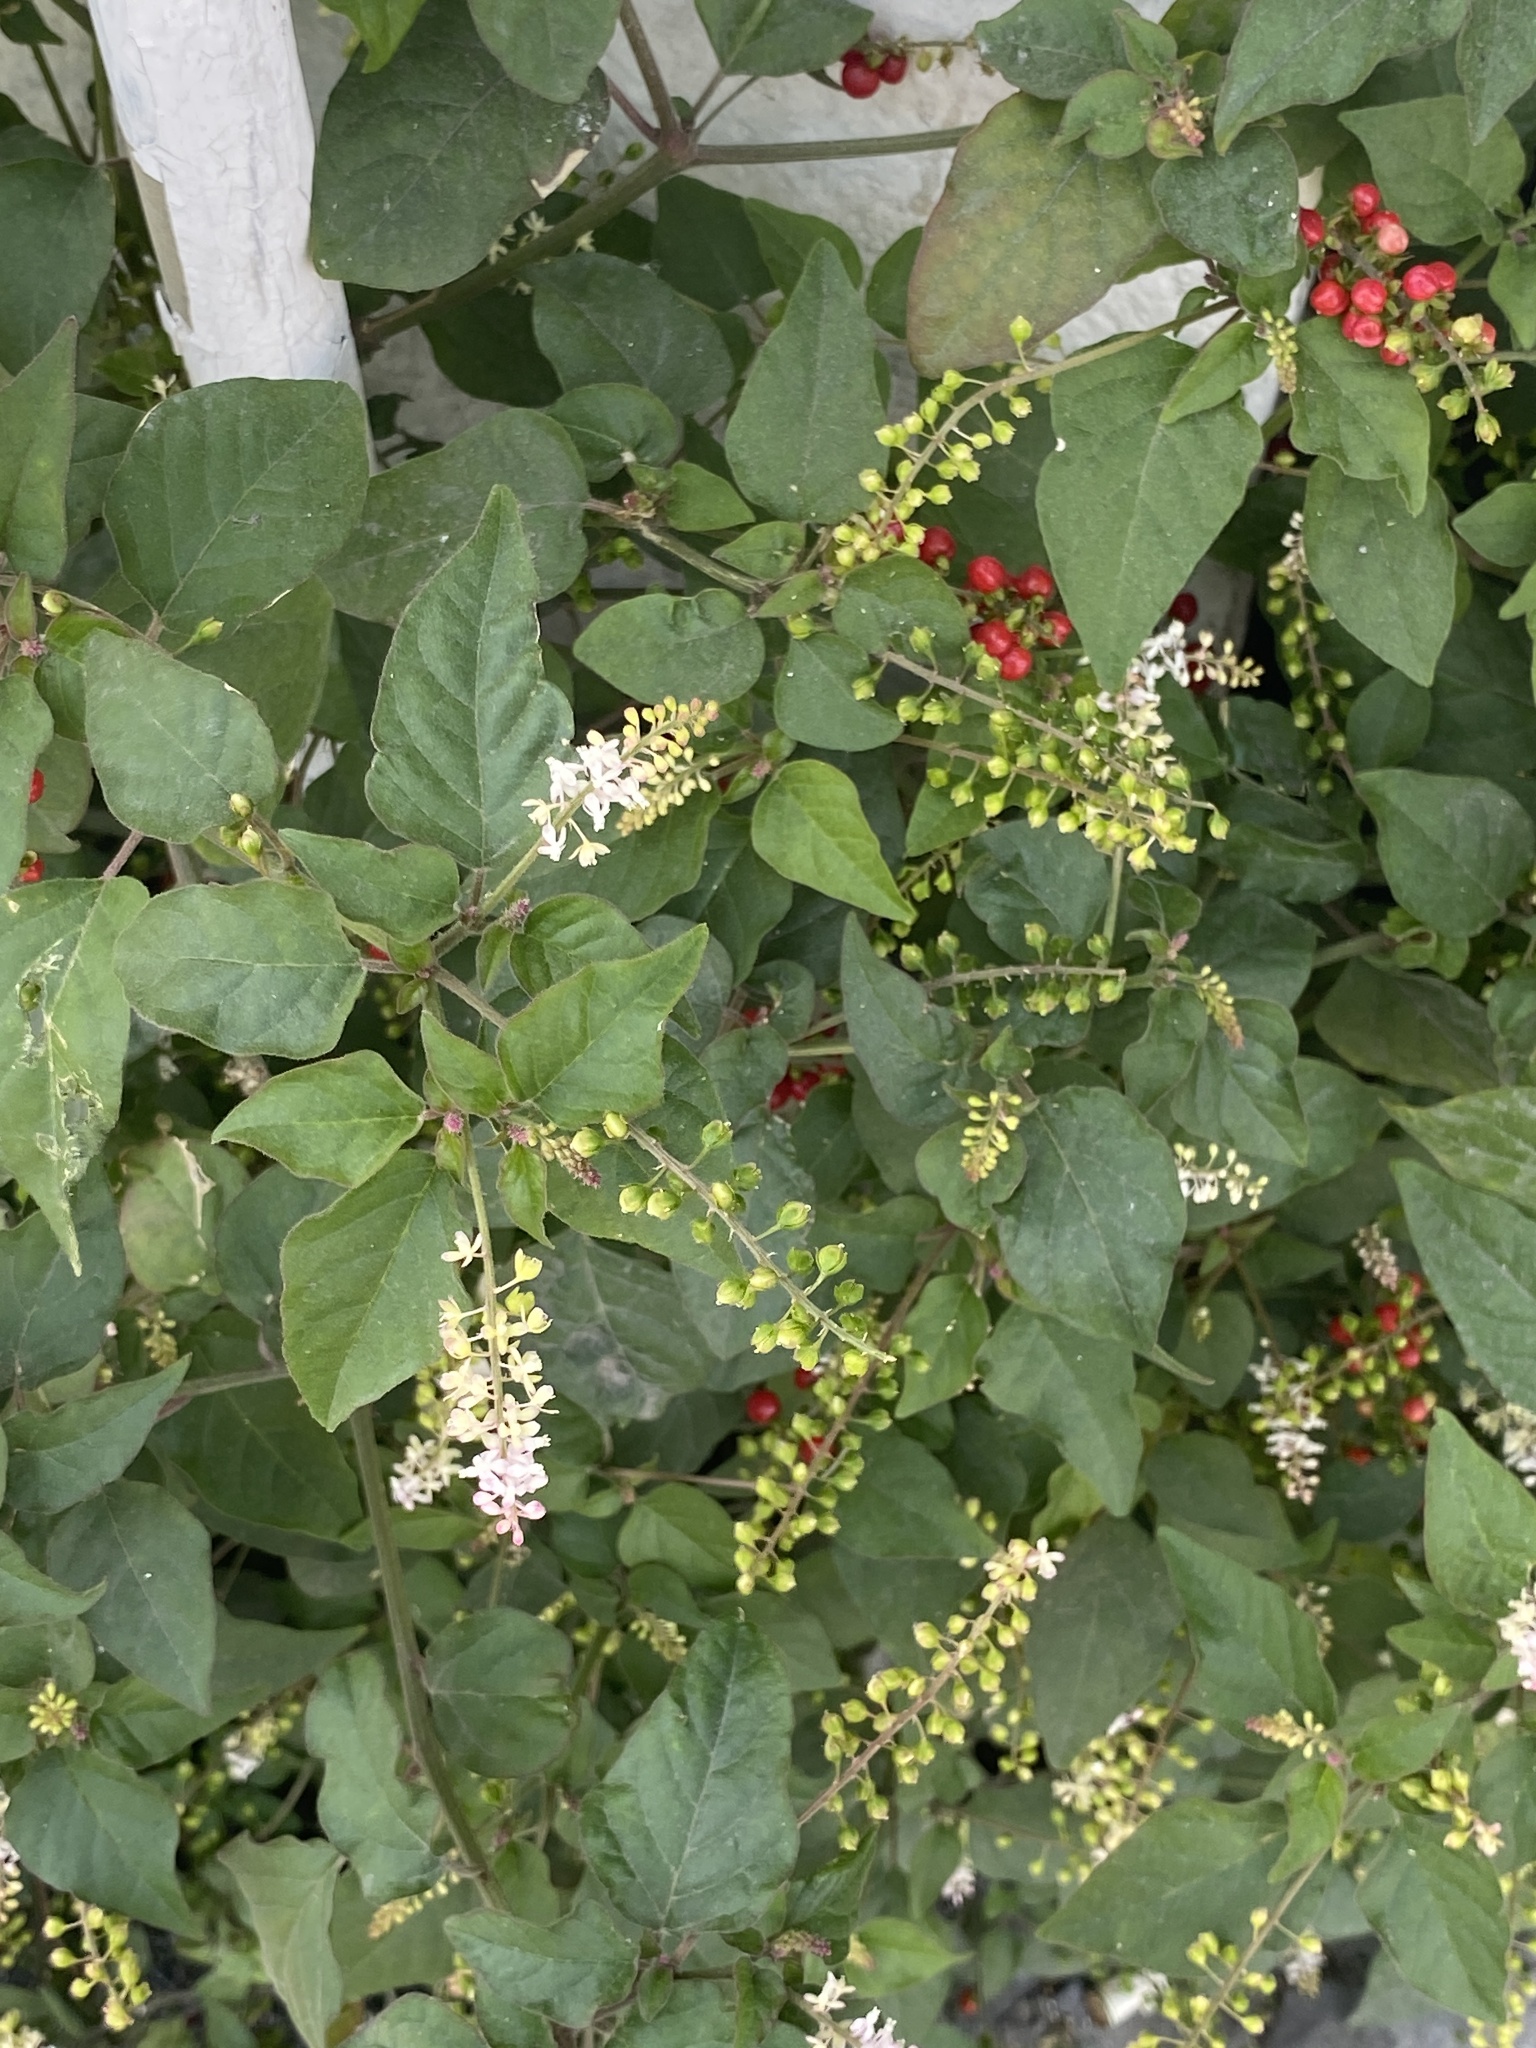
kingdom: Plantae
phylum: Tracheophyta
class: Magnoliopsida
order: Caryophyllales
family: Phytolaccaceae
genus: Rivina
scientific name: Rivina humilis
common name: Rougeplant
